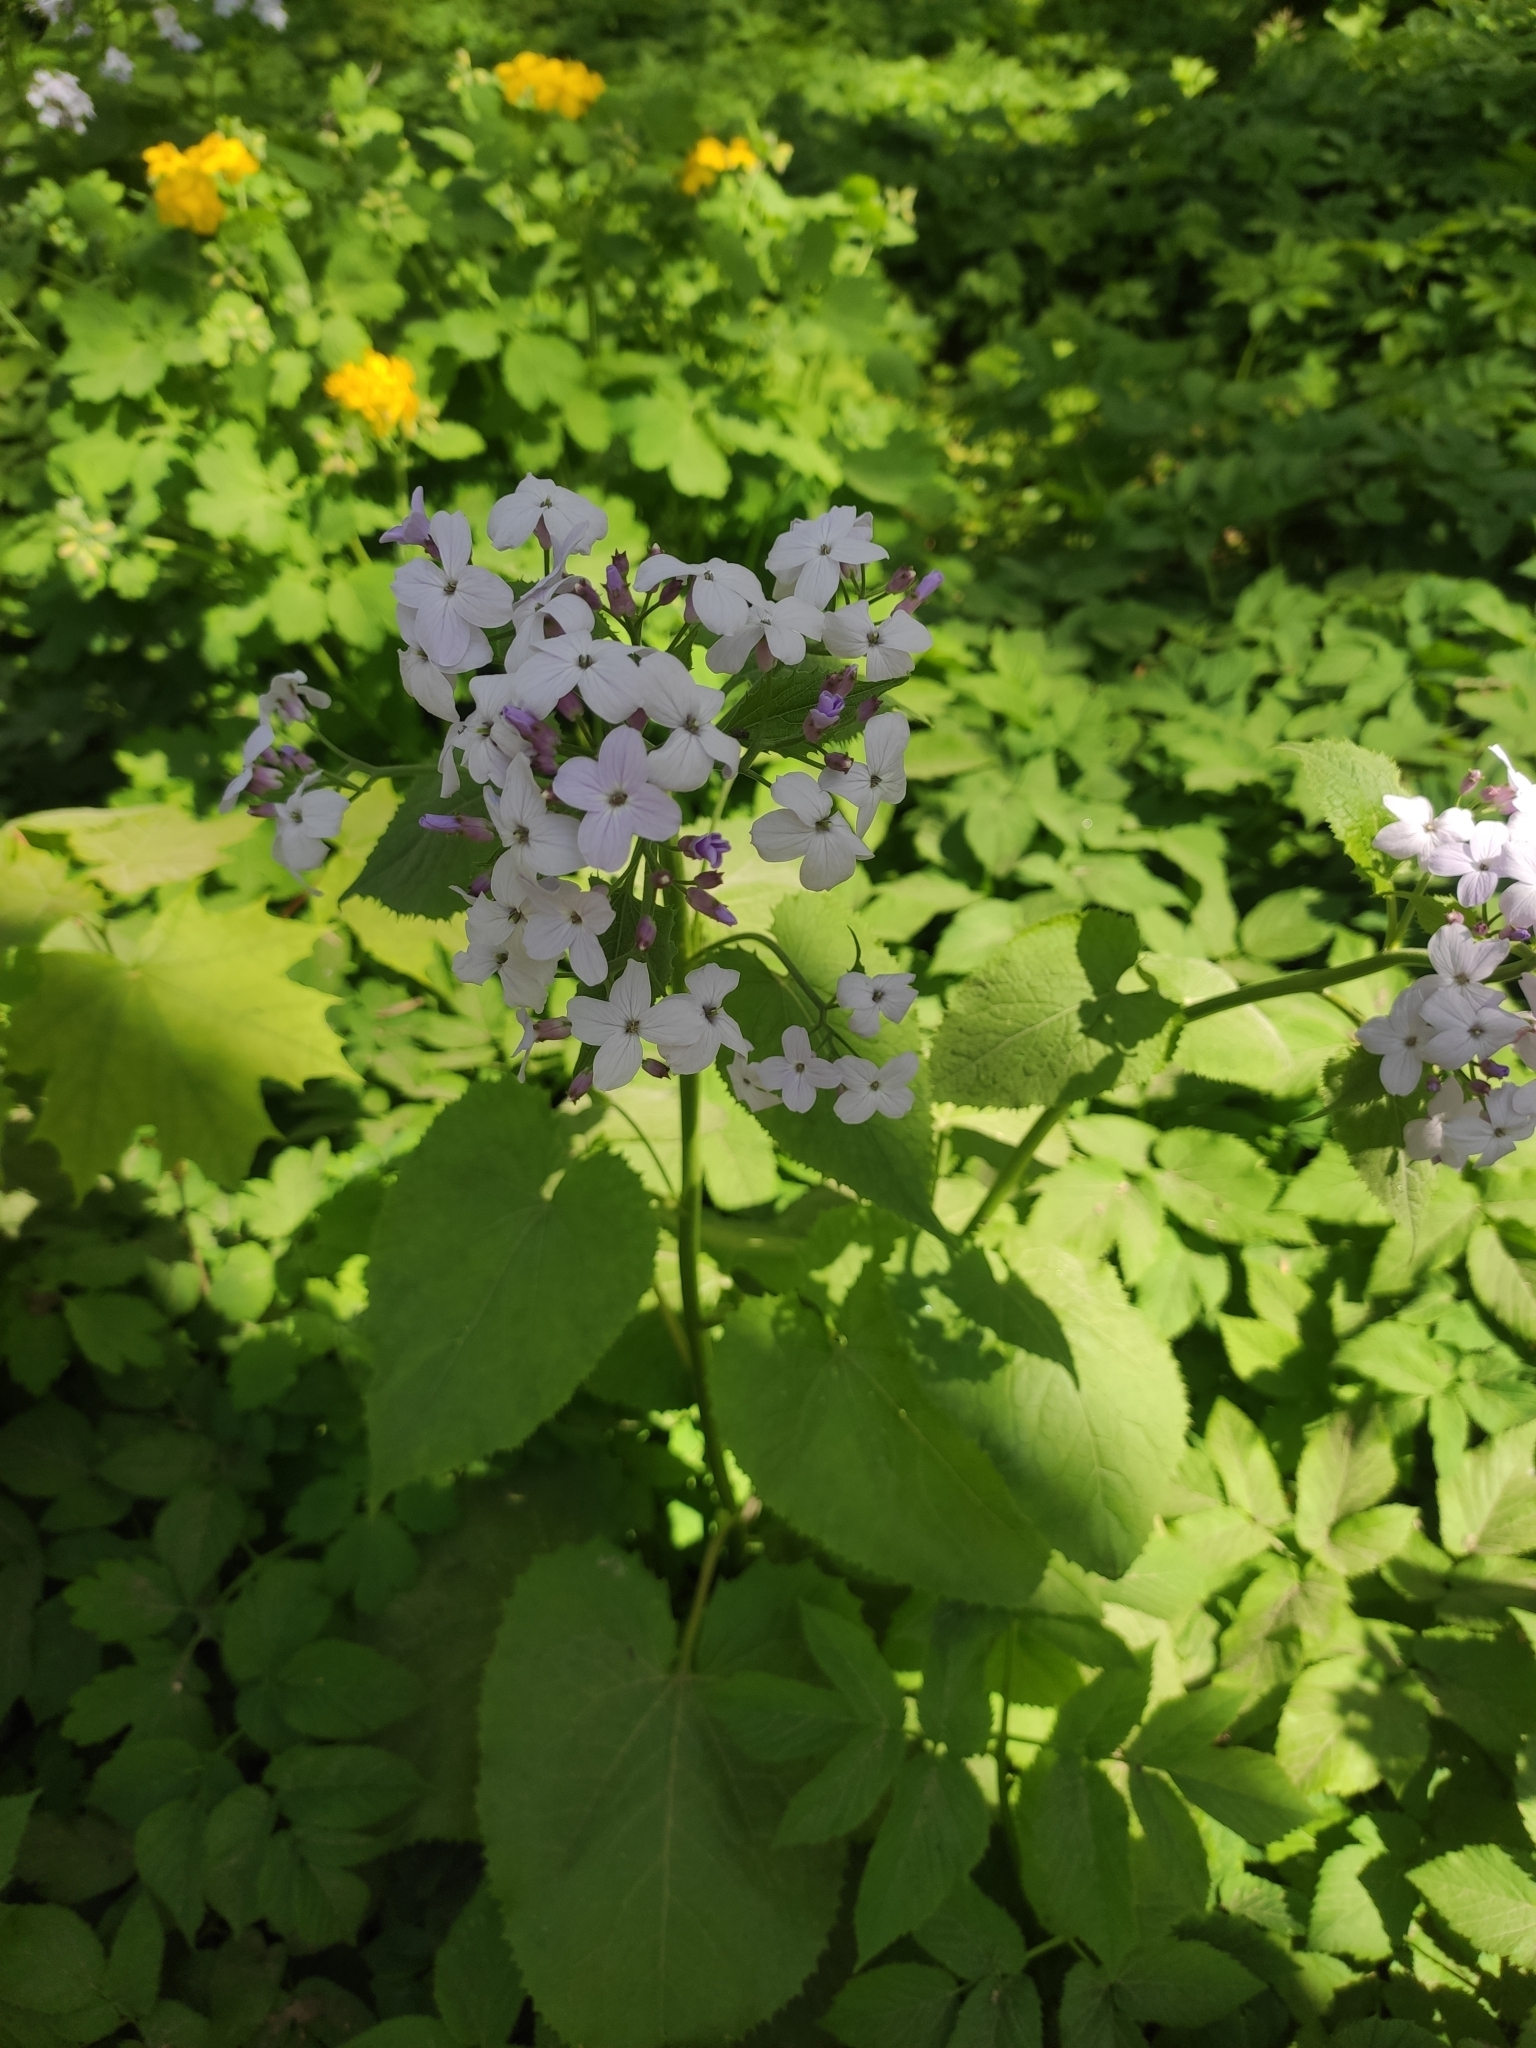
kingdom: Plantae
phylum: Tracheophyta
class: Magnoliopsida
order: Brassicales
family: Brassicaceae
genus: Lunaria
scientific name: Lunaria rediviva
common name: Perennial honesty
